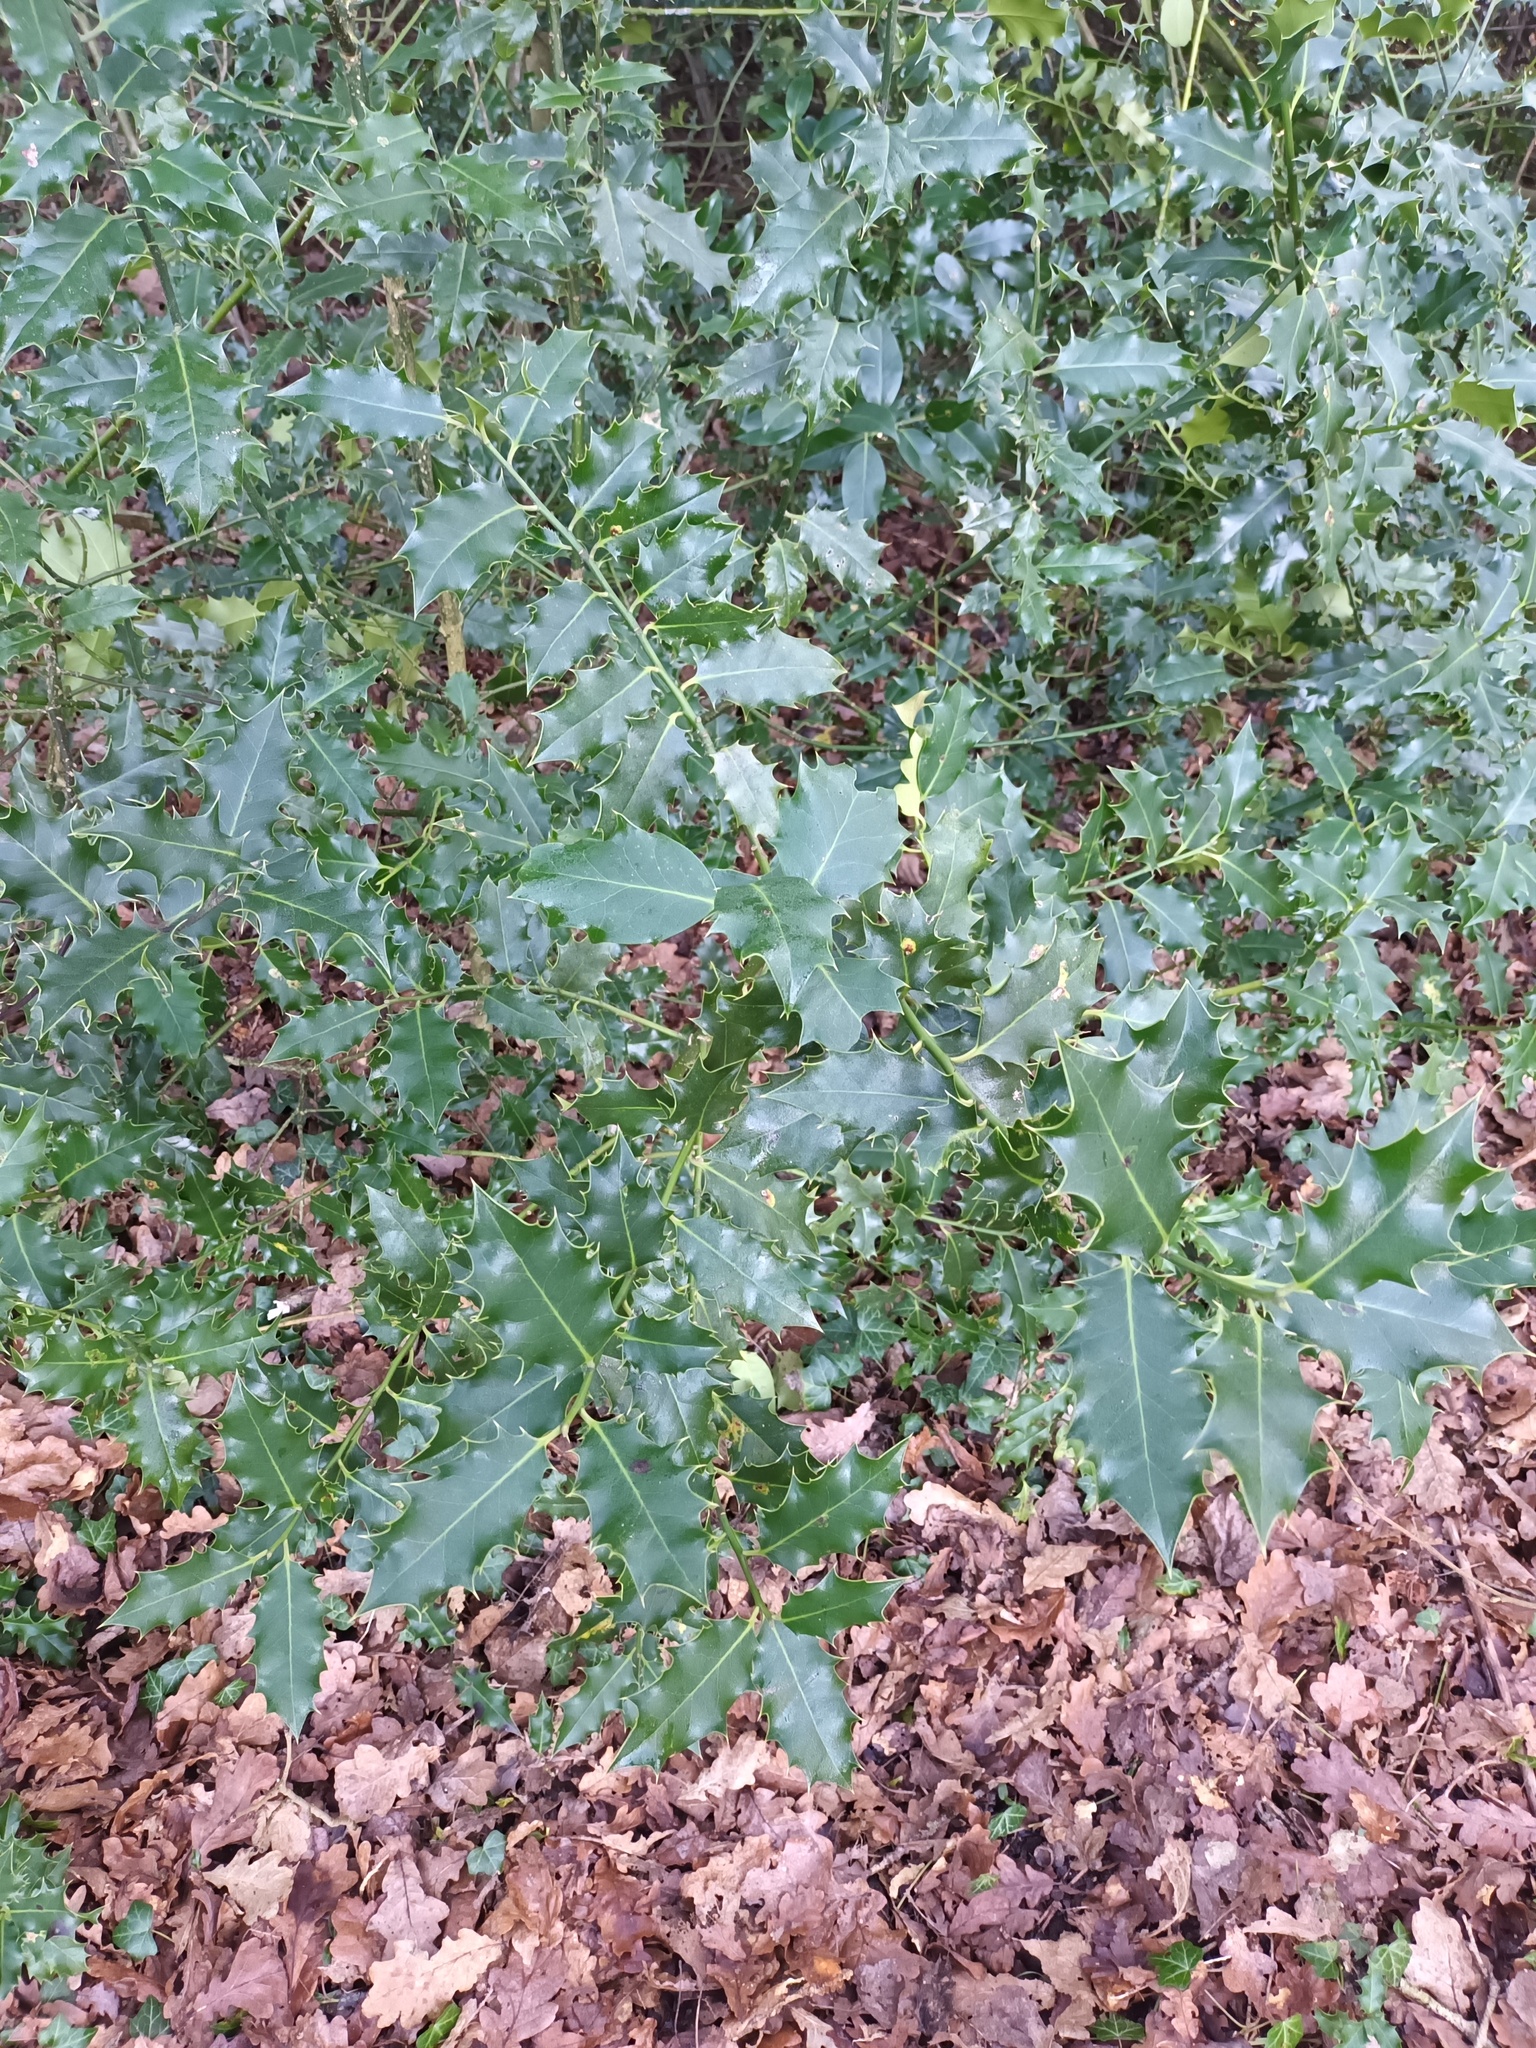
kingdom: Plantae
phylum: Tracheophyta
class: Magnoliopsida
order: Aquifoliales
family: Aquifoliaceae
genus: Ilex
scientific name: Ilex aquifolium
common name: English holly
